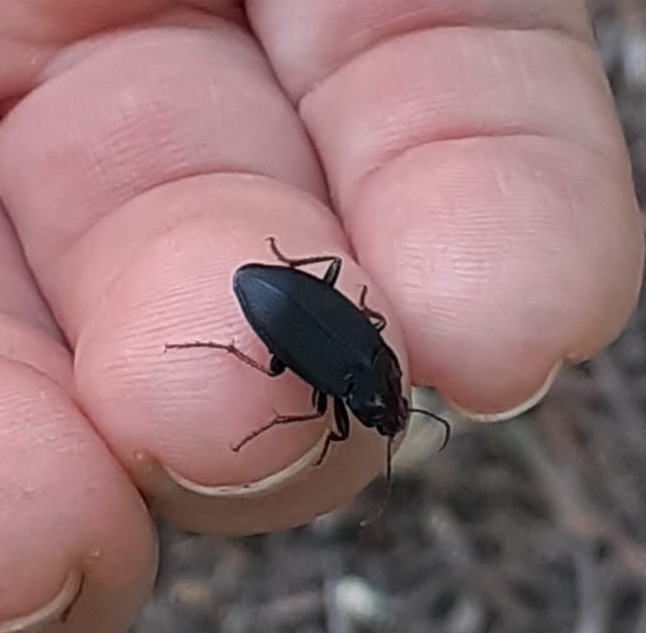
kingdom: Animalia
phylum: Arthropoda
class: Insecta
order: Coleoptera
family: Carabidae
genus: Calathus
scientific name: Calathus fuscipes
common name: Dark-footed harp ground beetle
